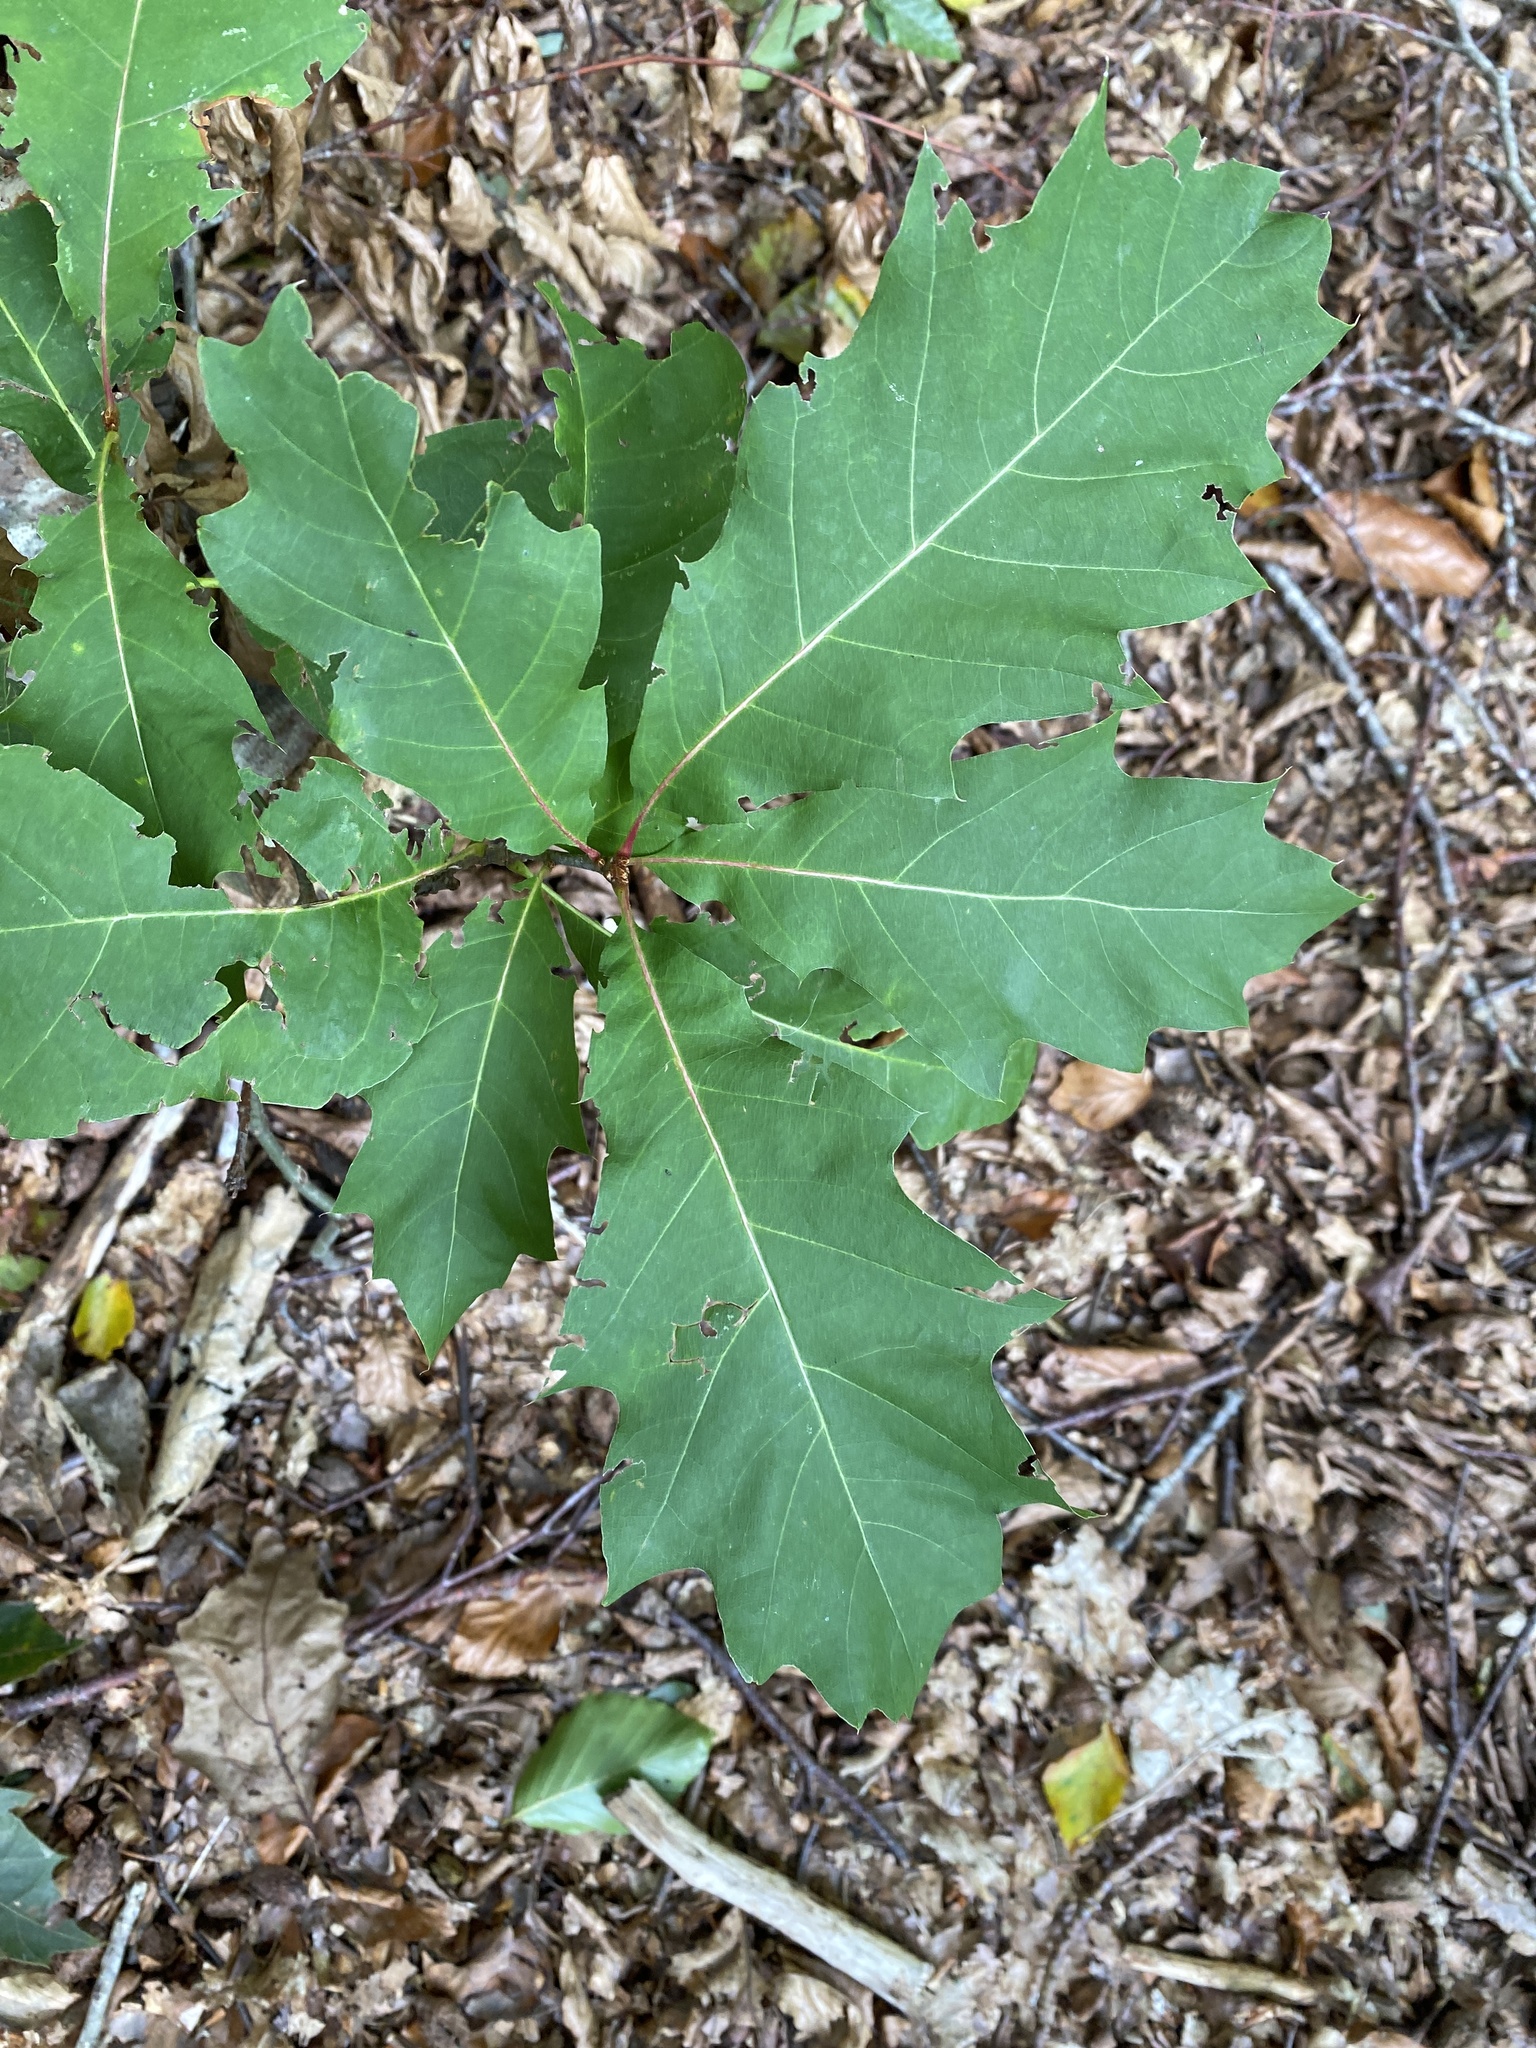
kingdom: Plantae
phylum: Tracheophyta
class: Magnoliopsida
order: Fagales
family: Fagaceae
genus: Quercus
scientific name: Quercus rubra
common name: Red oak
